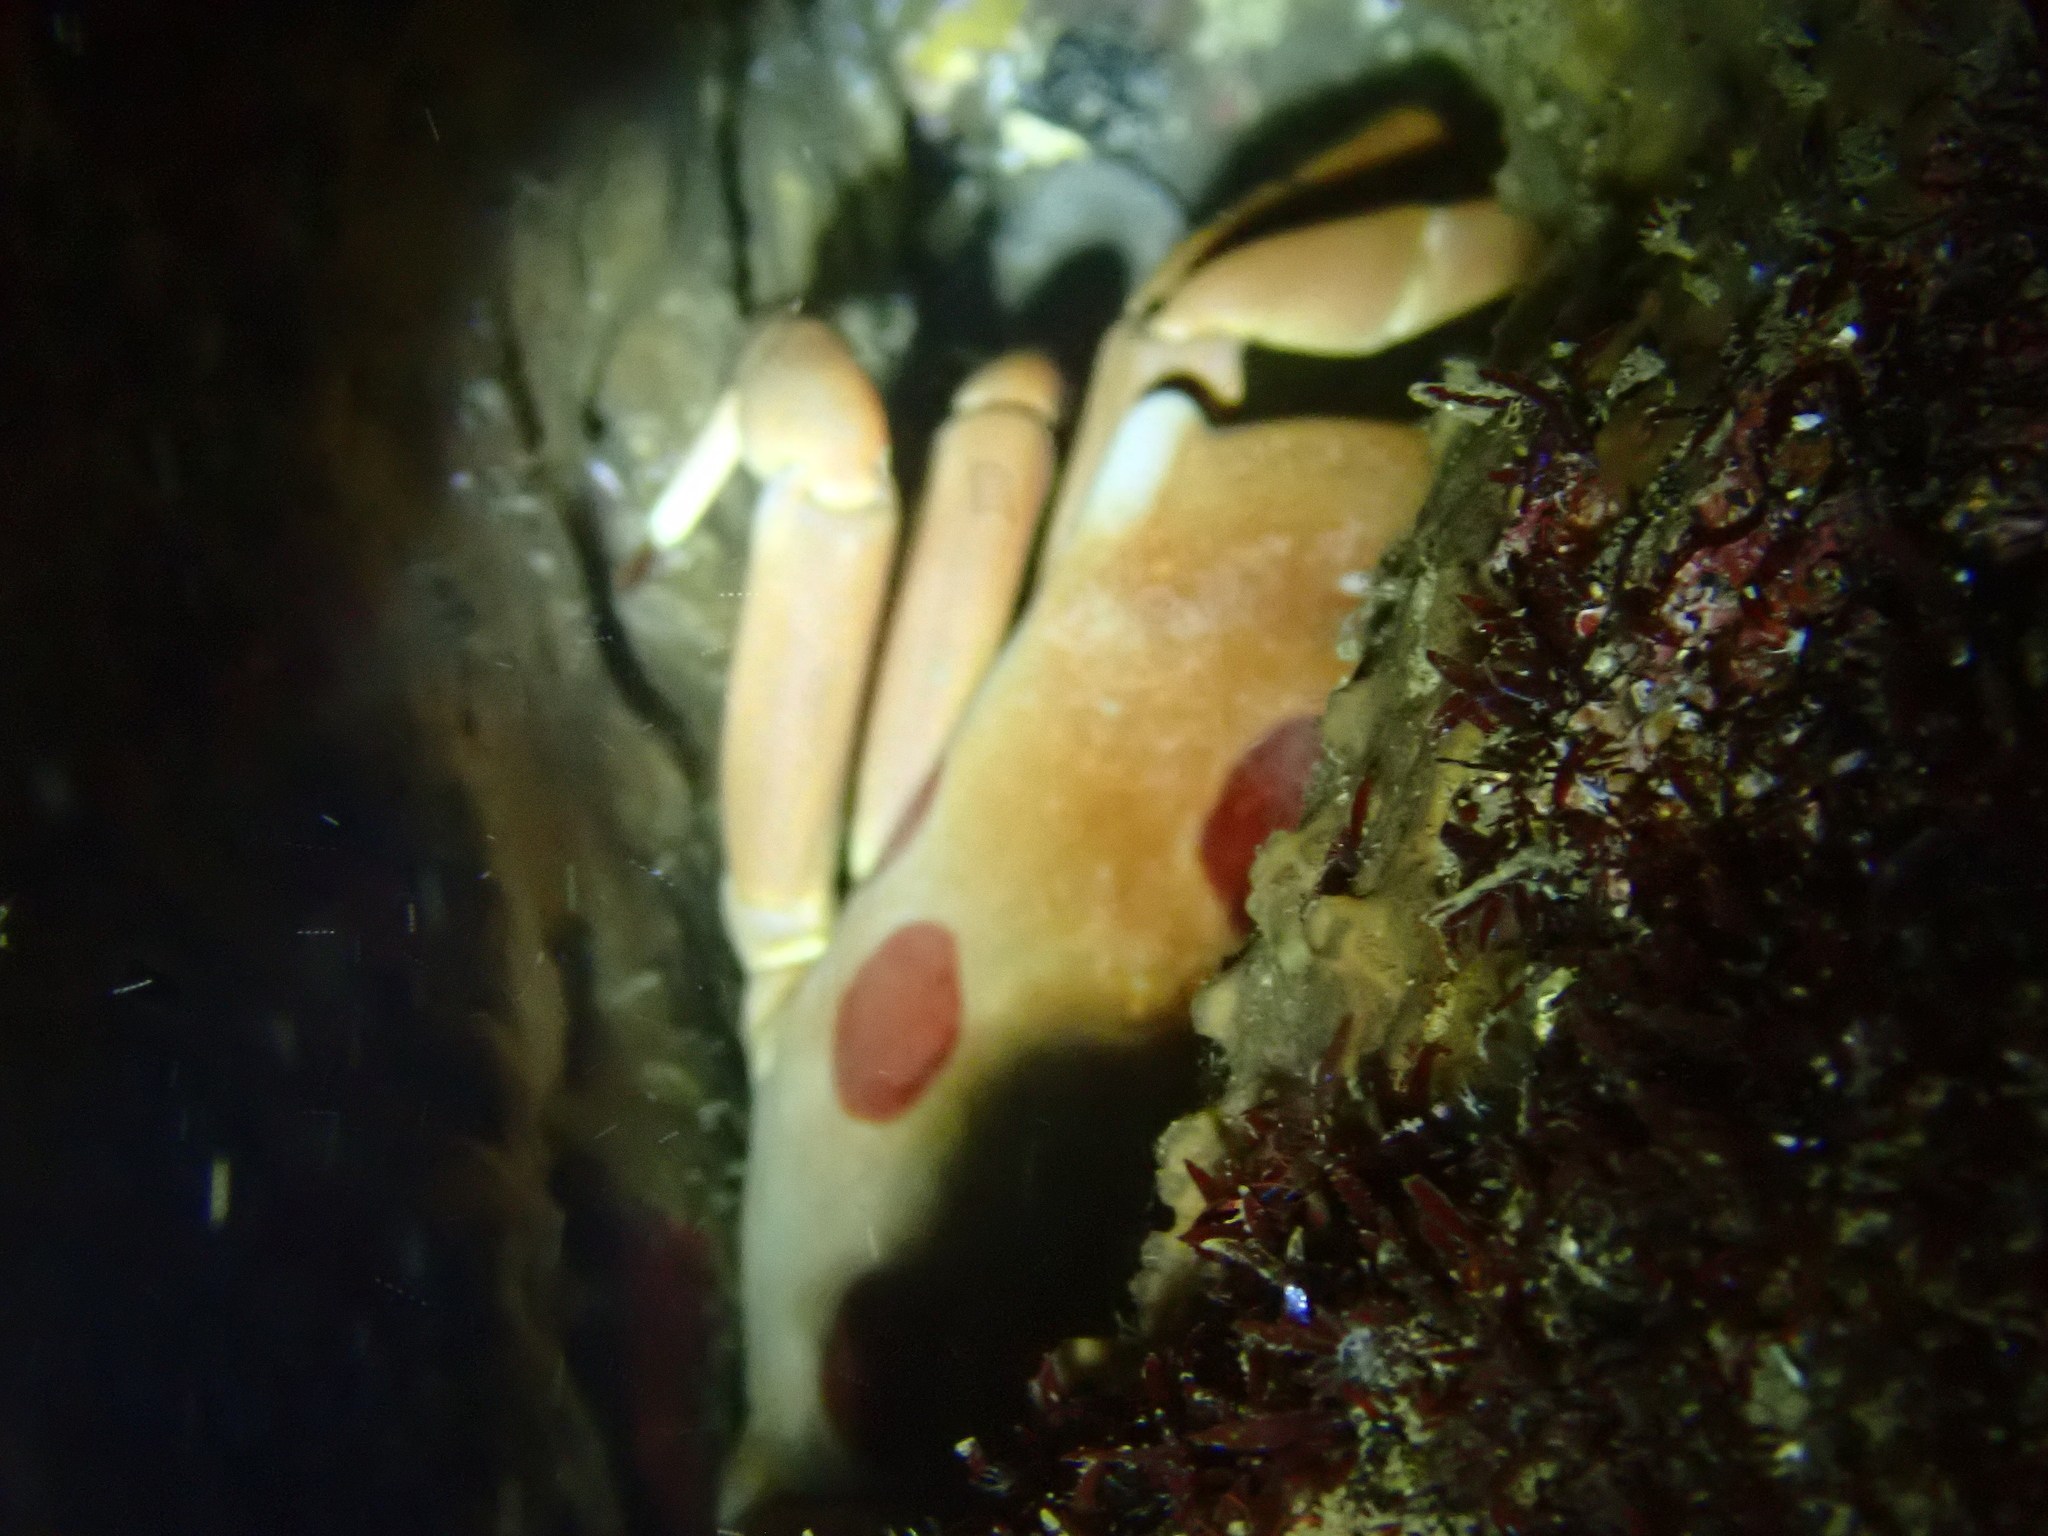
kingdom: Animalia
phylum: Arthropoda
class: Malacostraca
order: Decapoda
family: Carpiliidae
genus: Carpilius
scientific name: Carpilius maculatus
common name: Spotted reef crab
